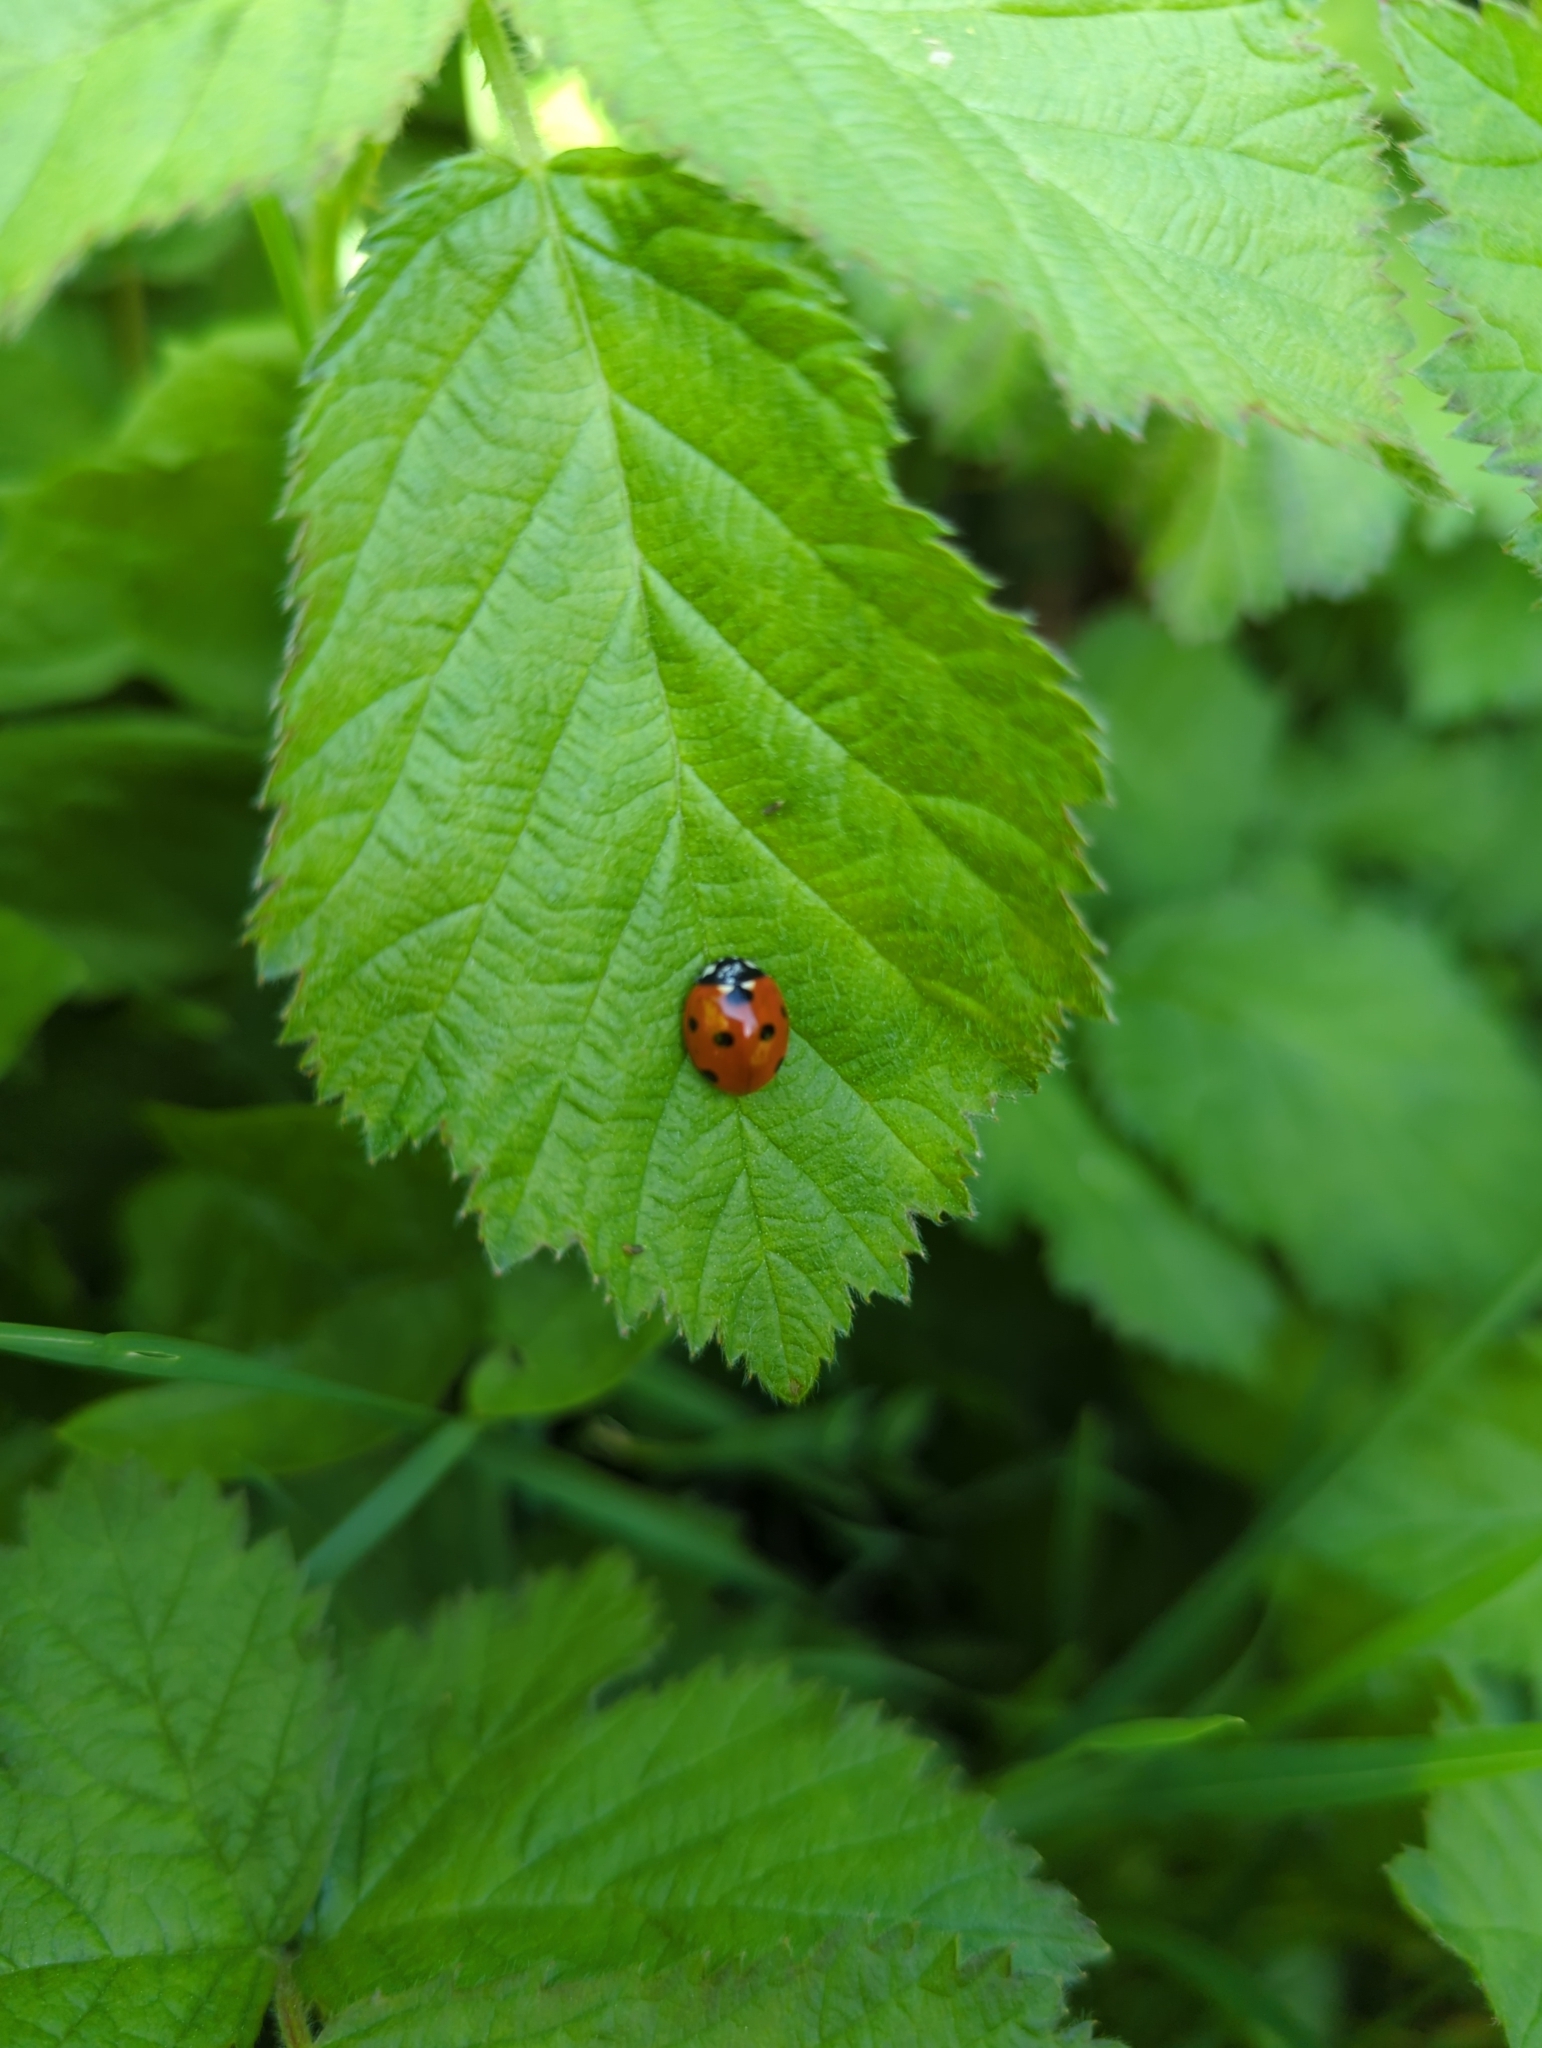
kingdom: Animalia
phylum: Arthropoda
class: Insecta
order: Coleoptera
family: Coccinellidae
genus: Coccinella
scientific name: Coccinella septempunctata
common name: Sevenspotted lady beetle
